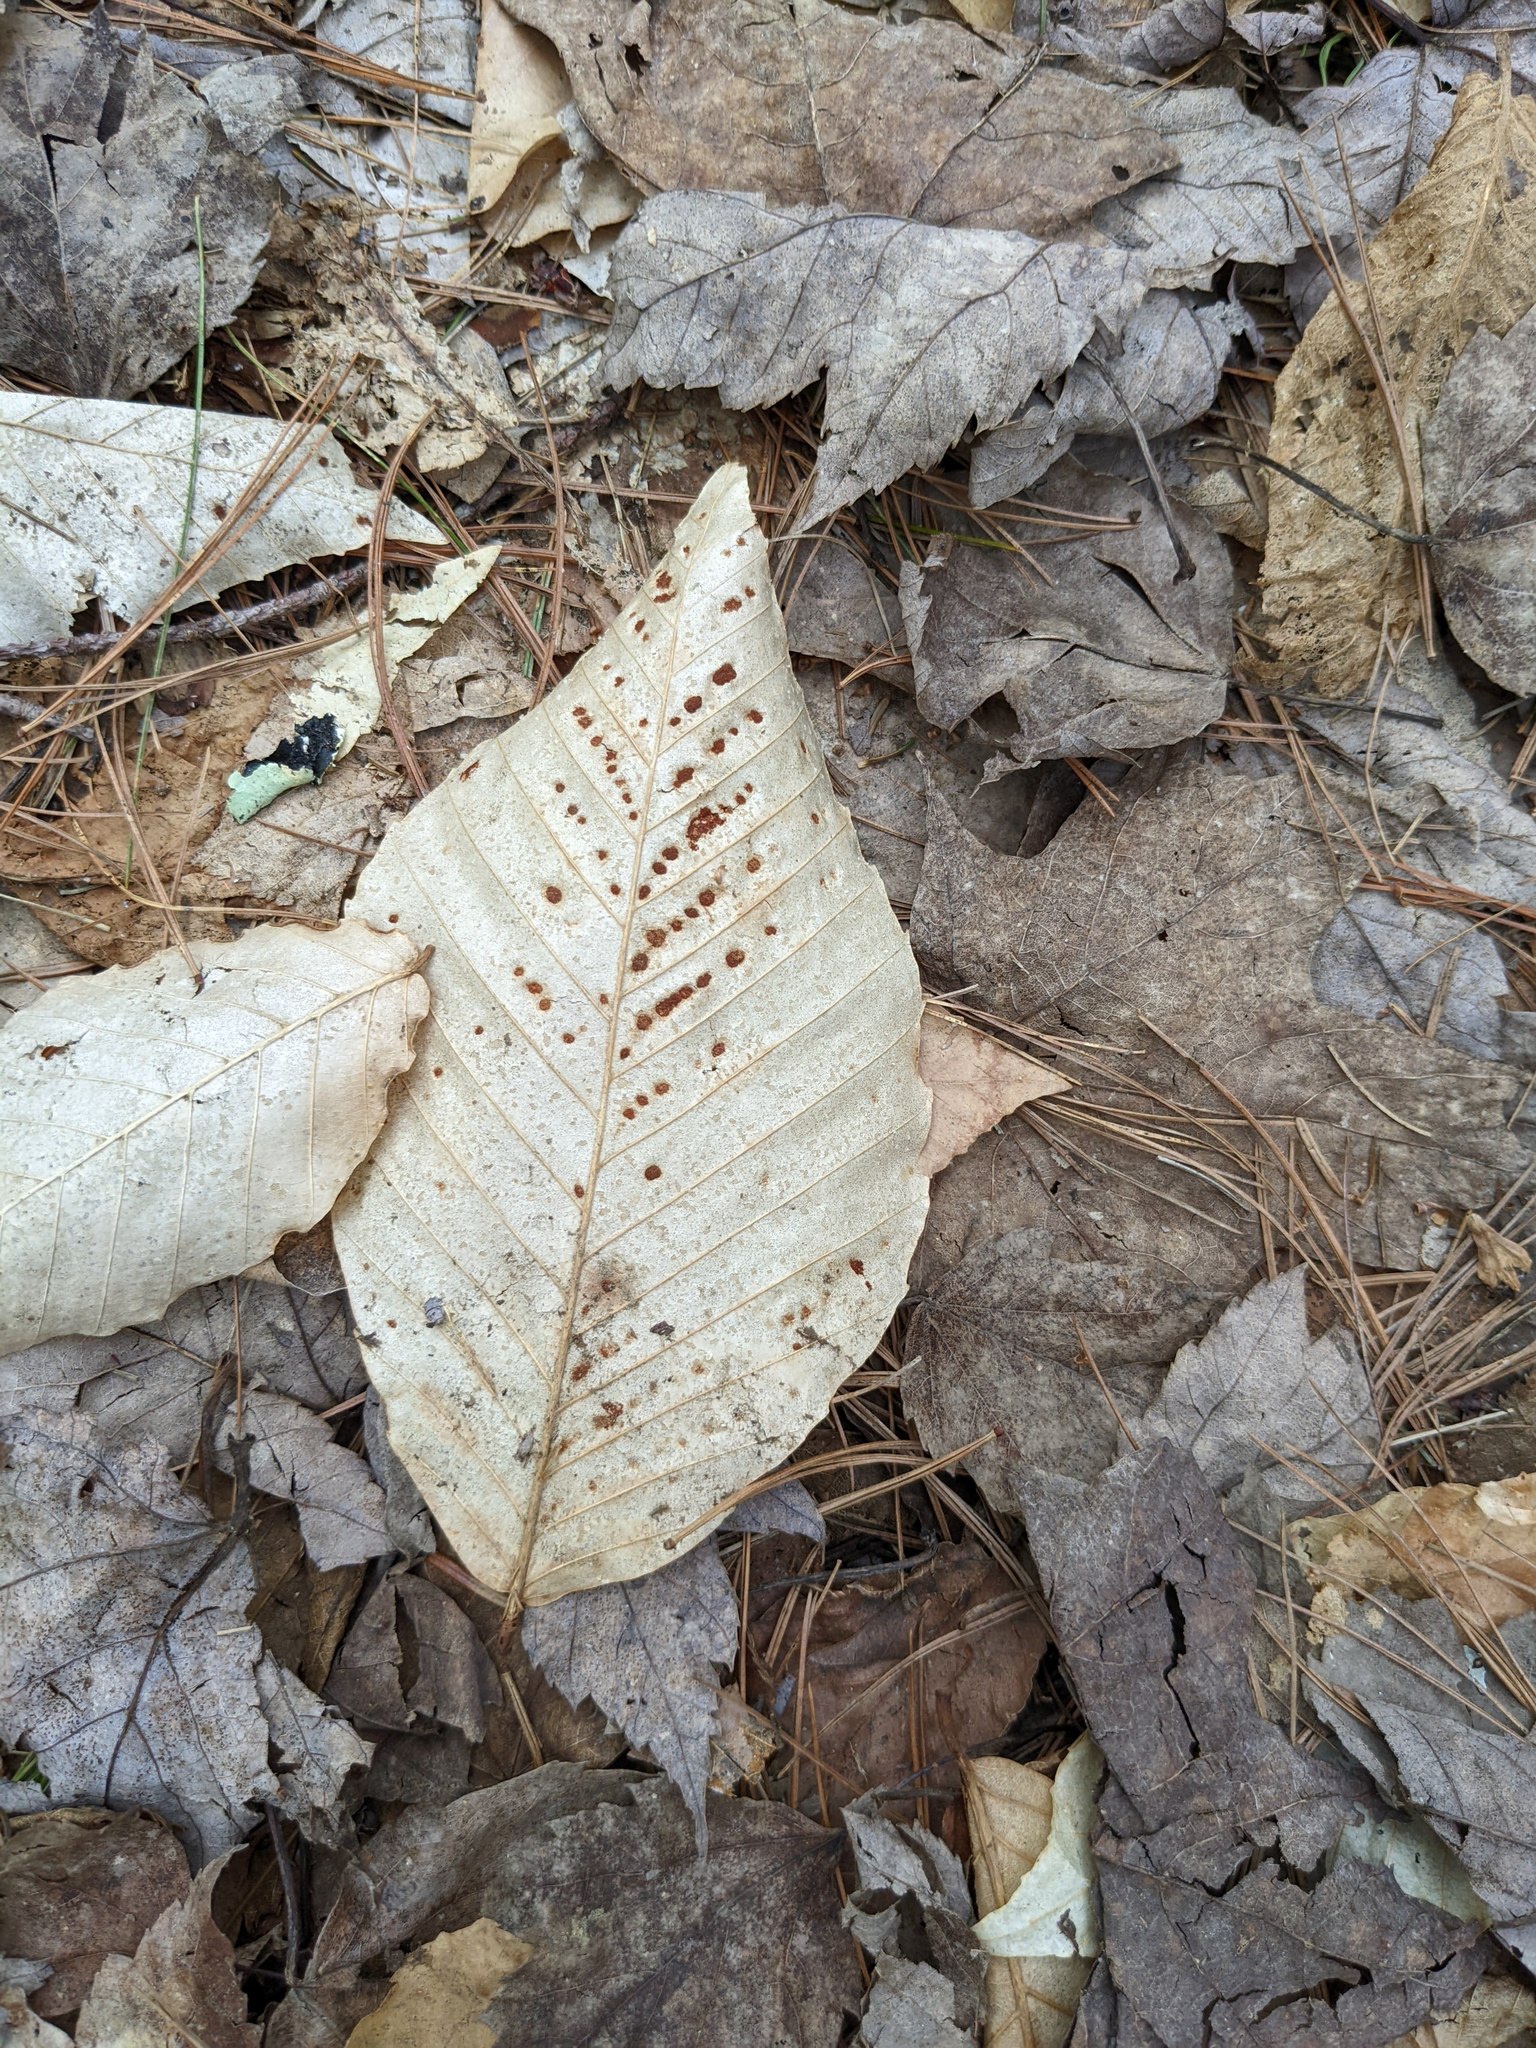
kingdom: Plantae
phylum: Tracheophyta
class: Magnoliopsida
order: Fagales
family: Fagaceae
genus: Fagus
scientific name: Fagus grandifolia
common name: American beech
